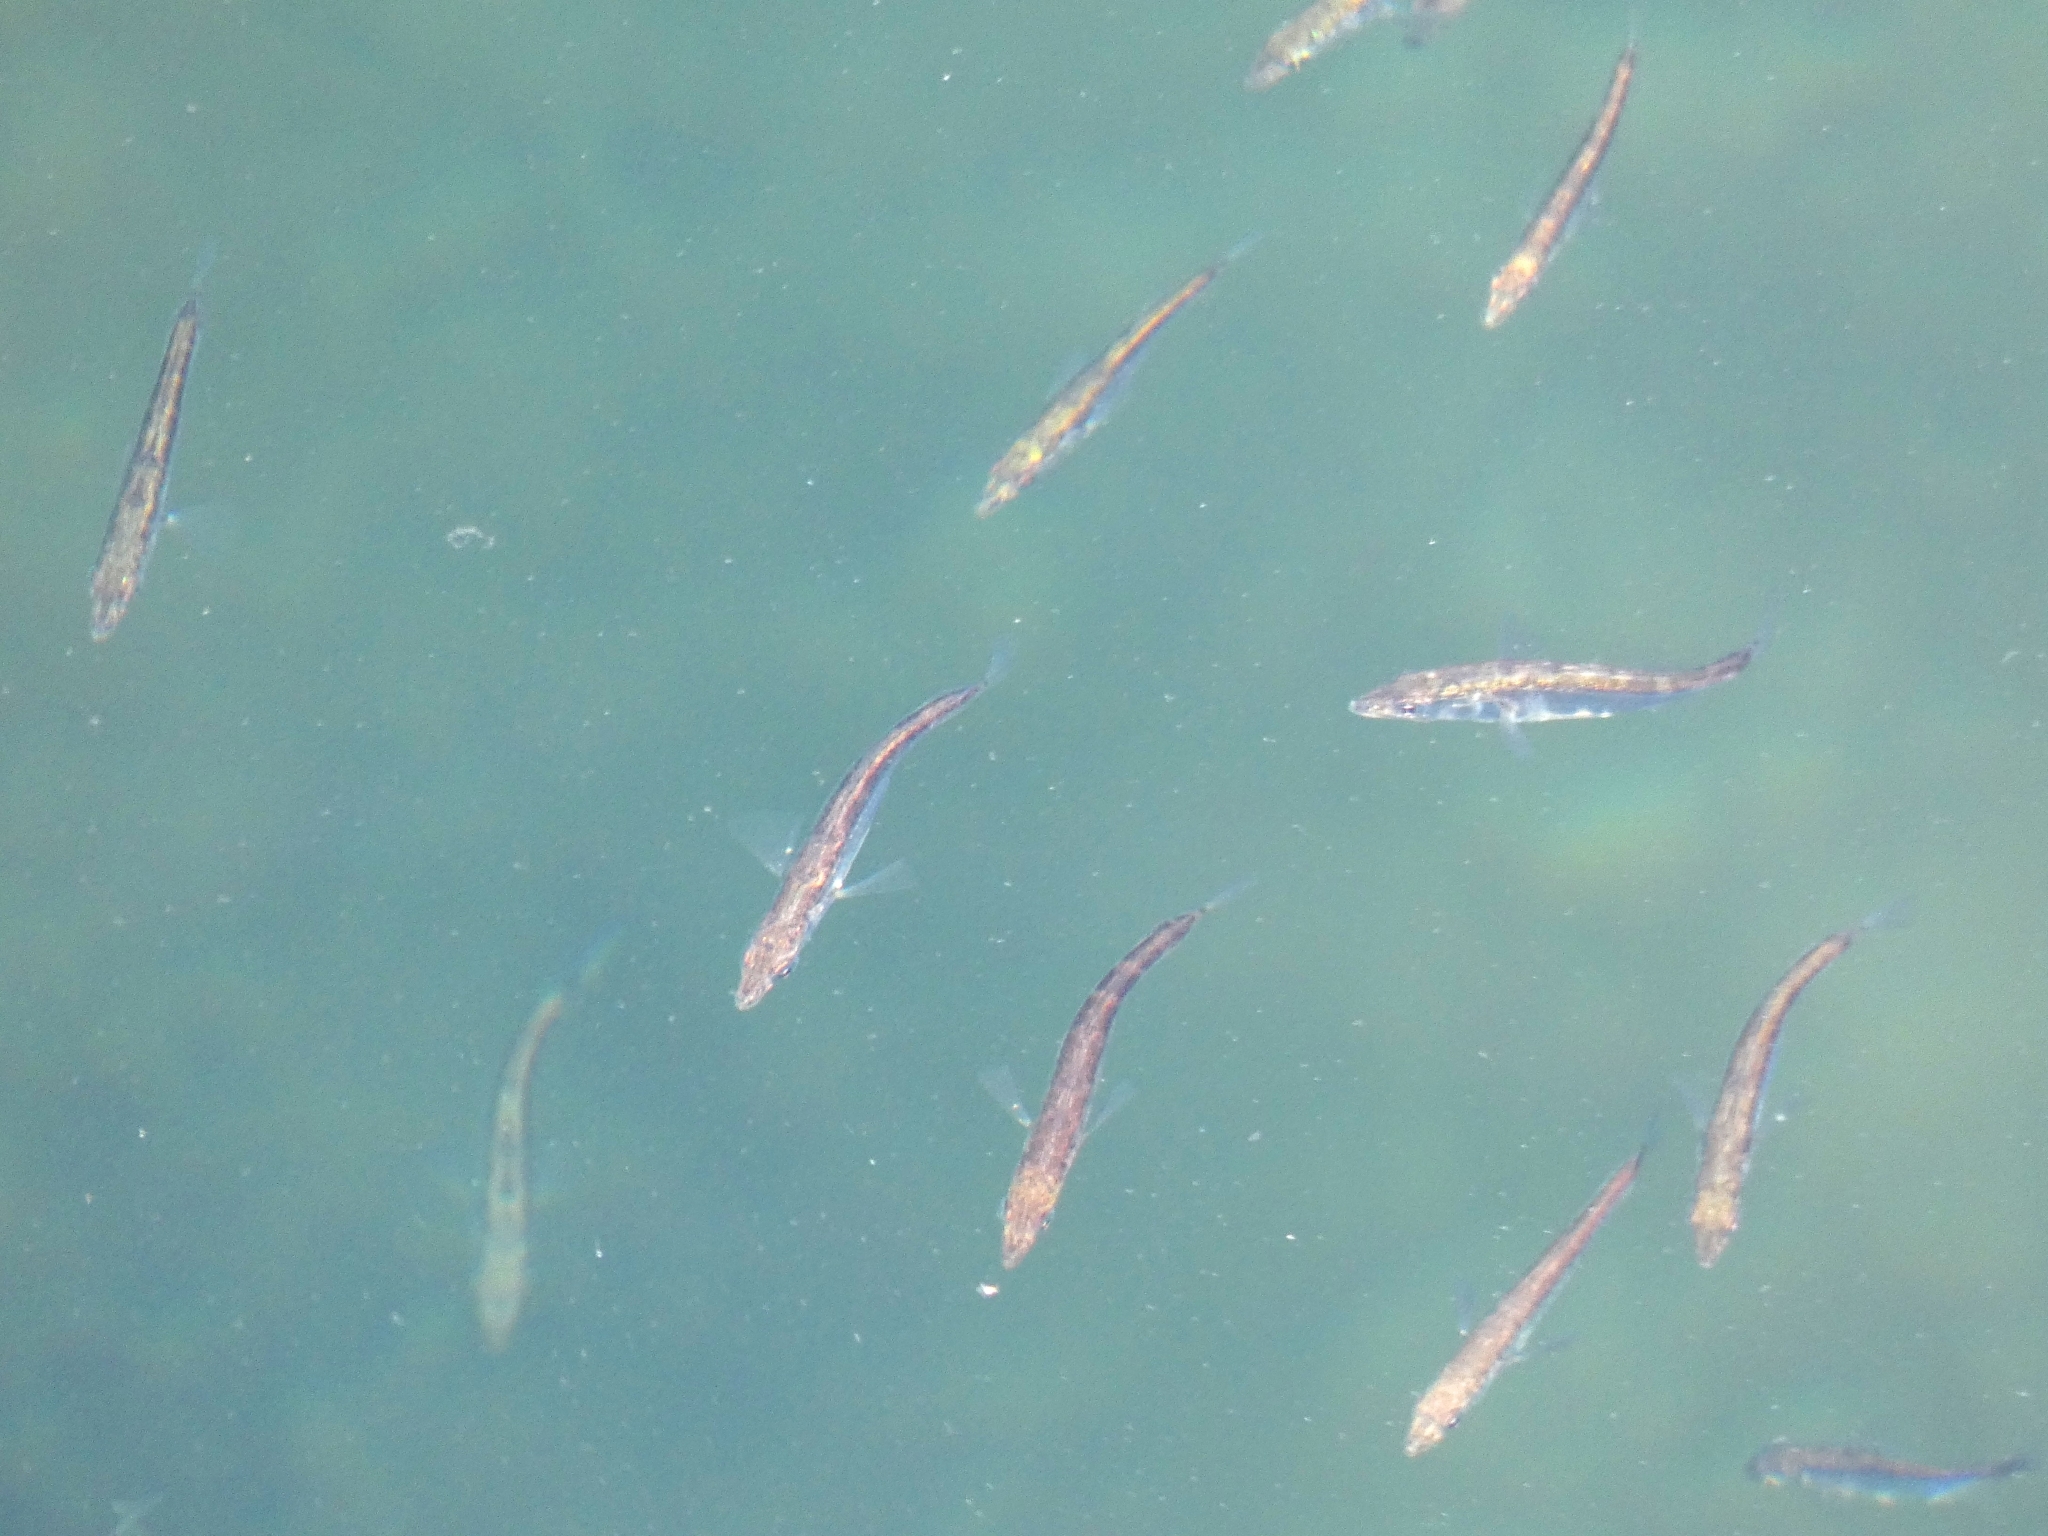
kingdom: Animalia
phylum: Chordata
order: Gasterosteiformes
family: Gasterosteidae
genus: Gasterosteus
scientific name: Gasterosteus aculeatus
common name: Three-spined stickleback
